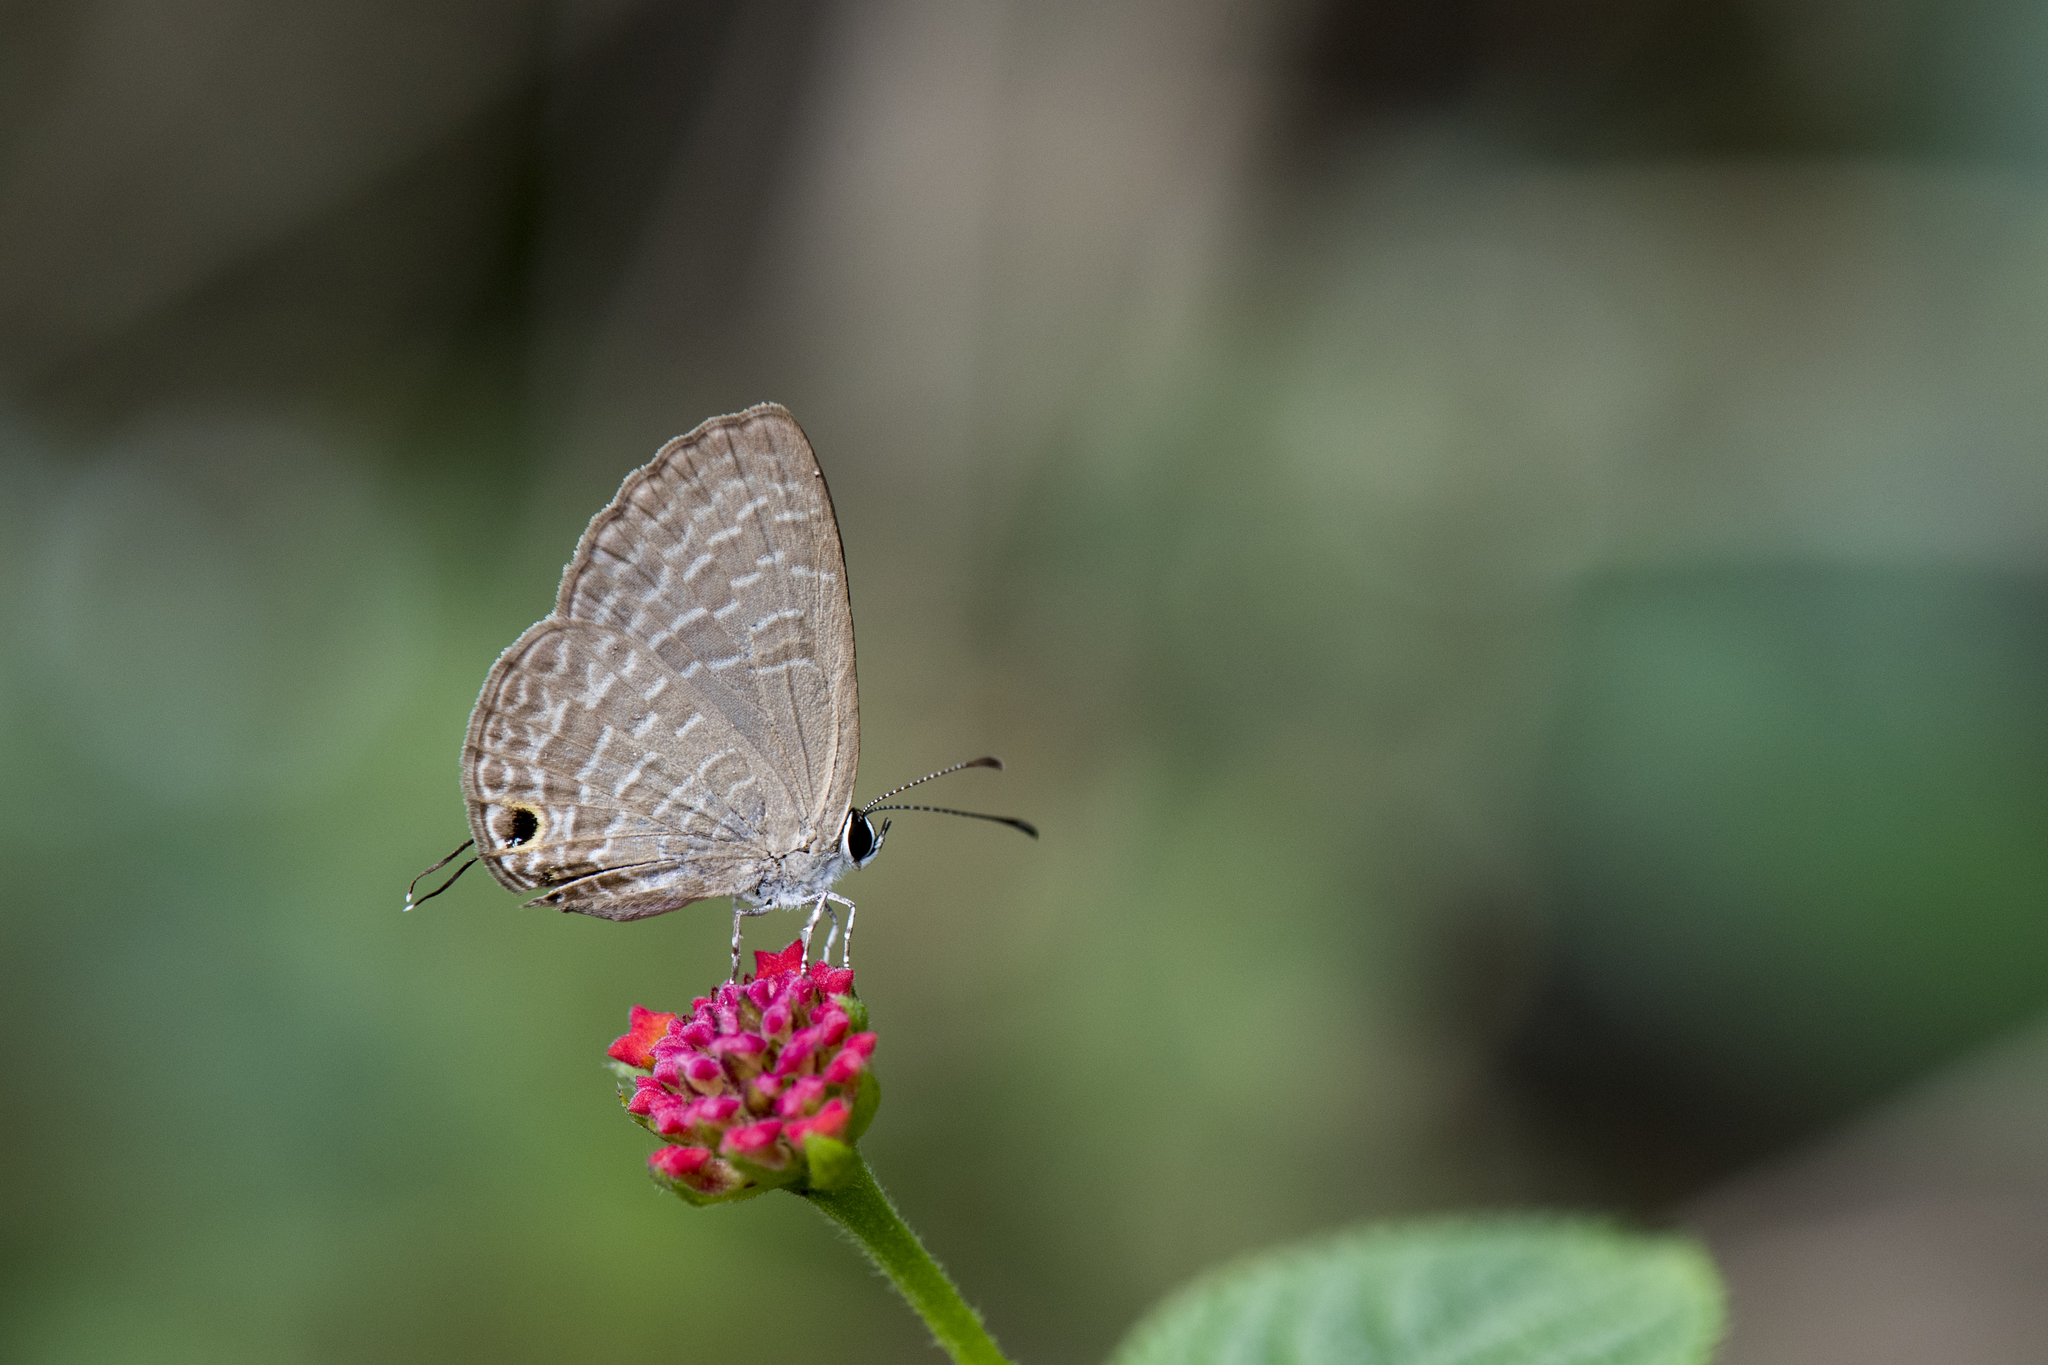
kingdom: Animalia
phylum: Arthropoda
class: Insecta
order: Lepidoptera
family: Lycaenidae
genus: Jamides
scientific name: Jamides bochus
